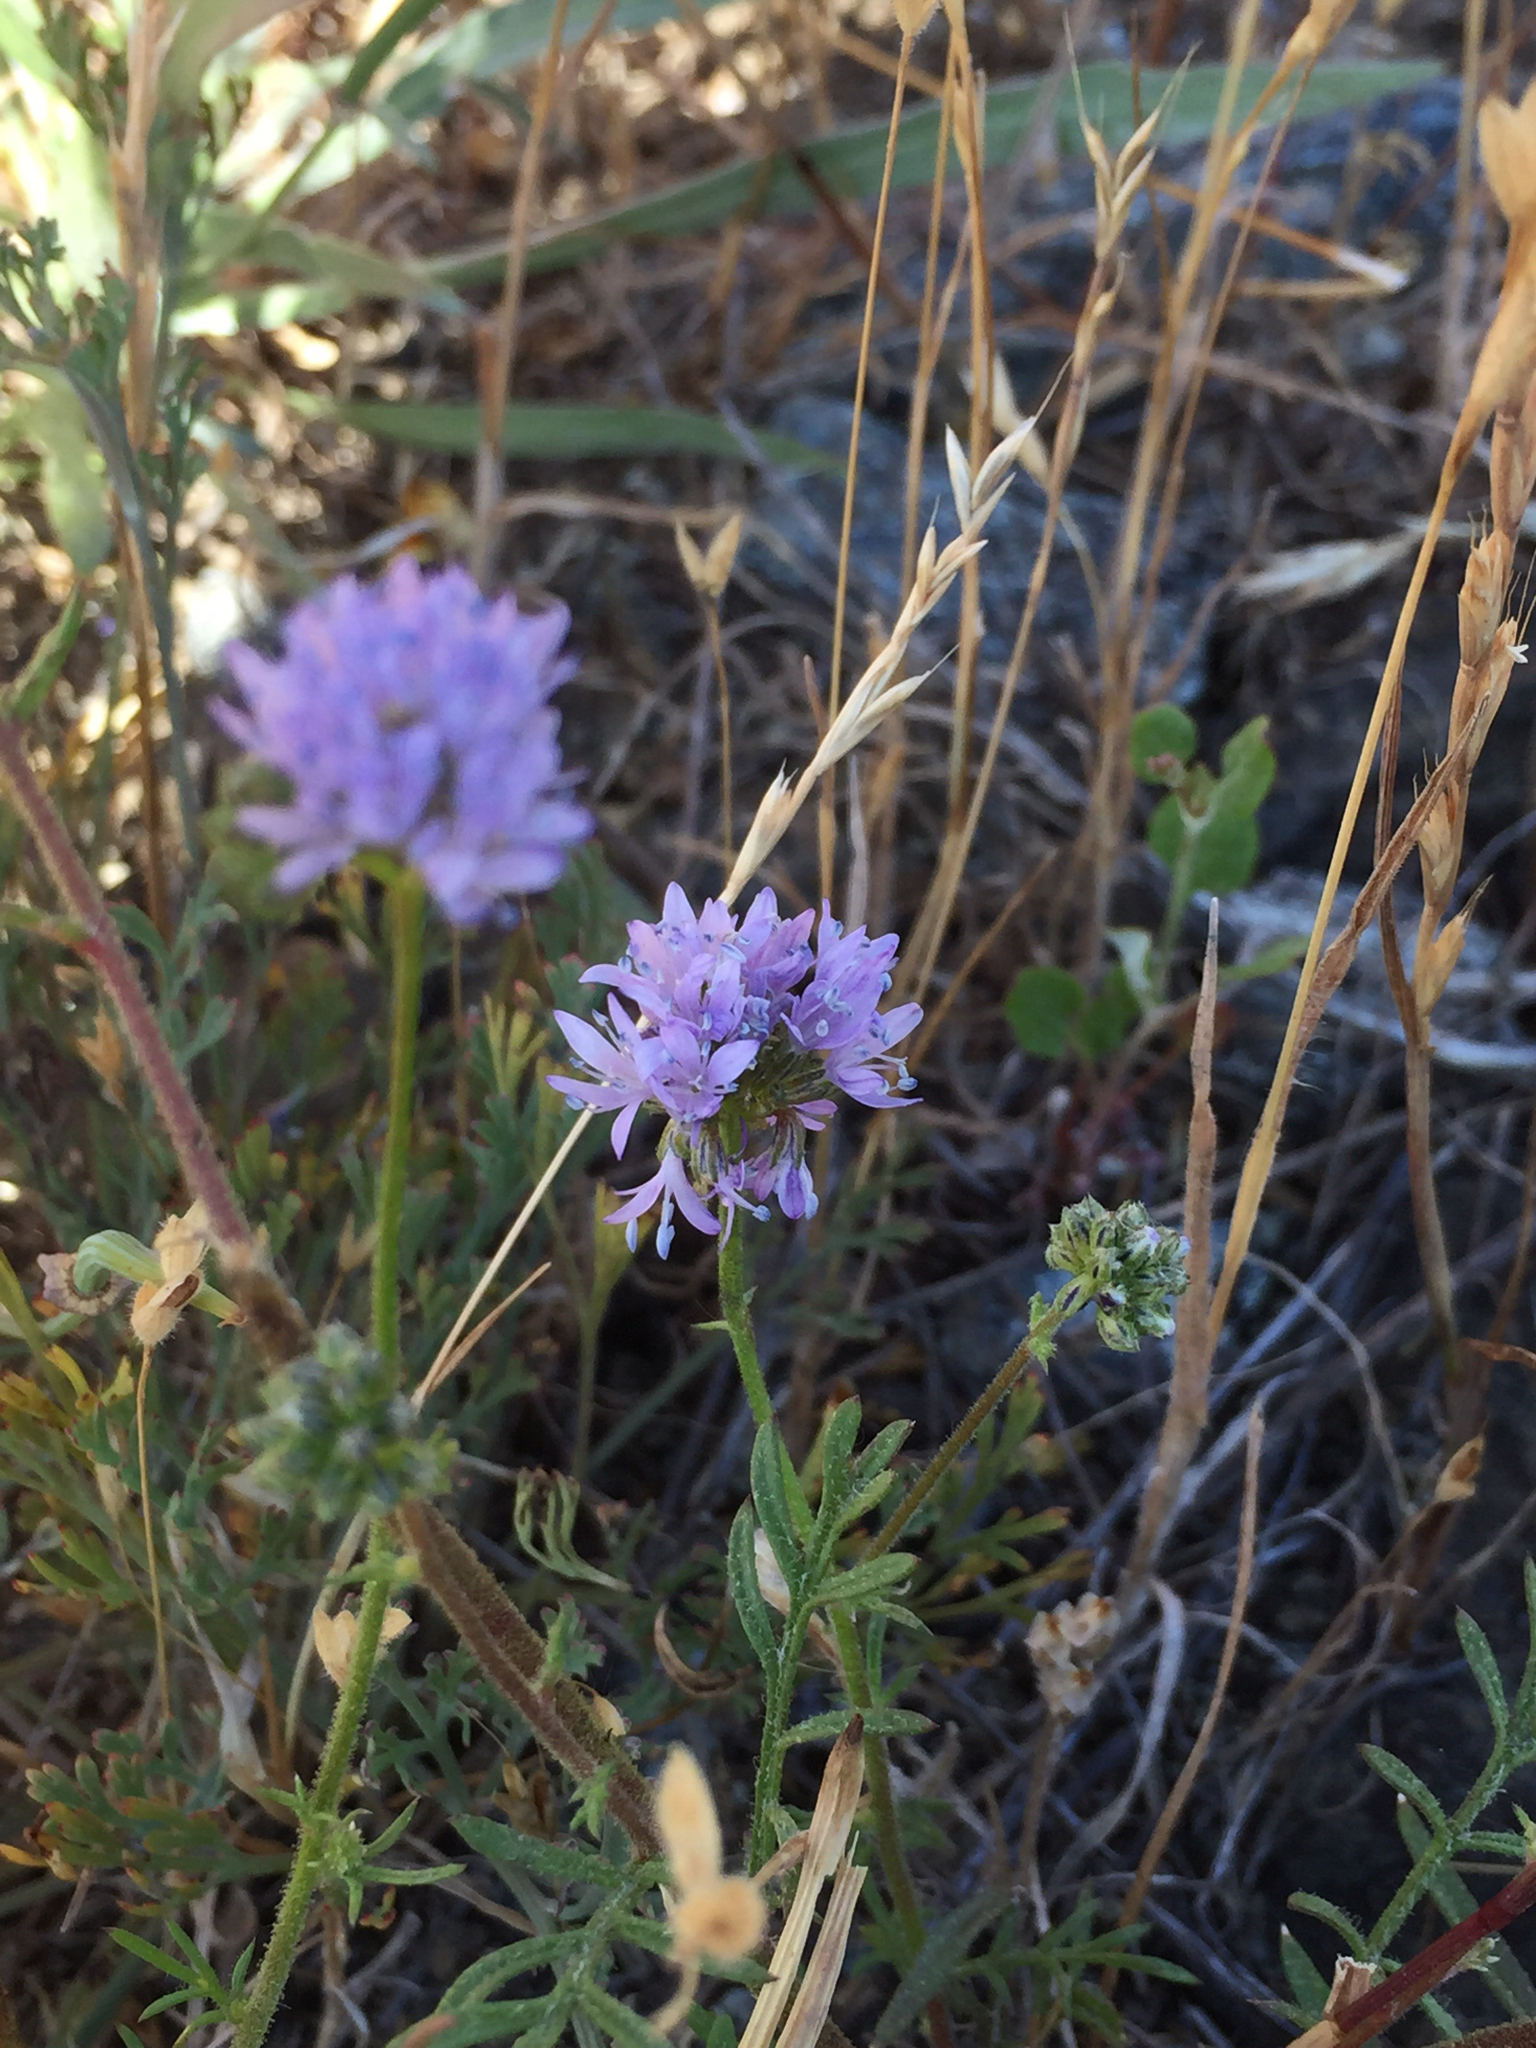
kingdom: Plantae
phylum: Tracheophyta
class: Magnoliopsida
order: Ericales
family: Polemoniaceae
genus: Gilia
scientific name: Gilia capitata
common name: Bluehead gilia
